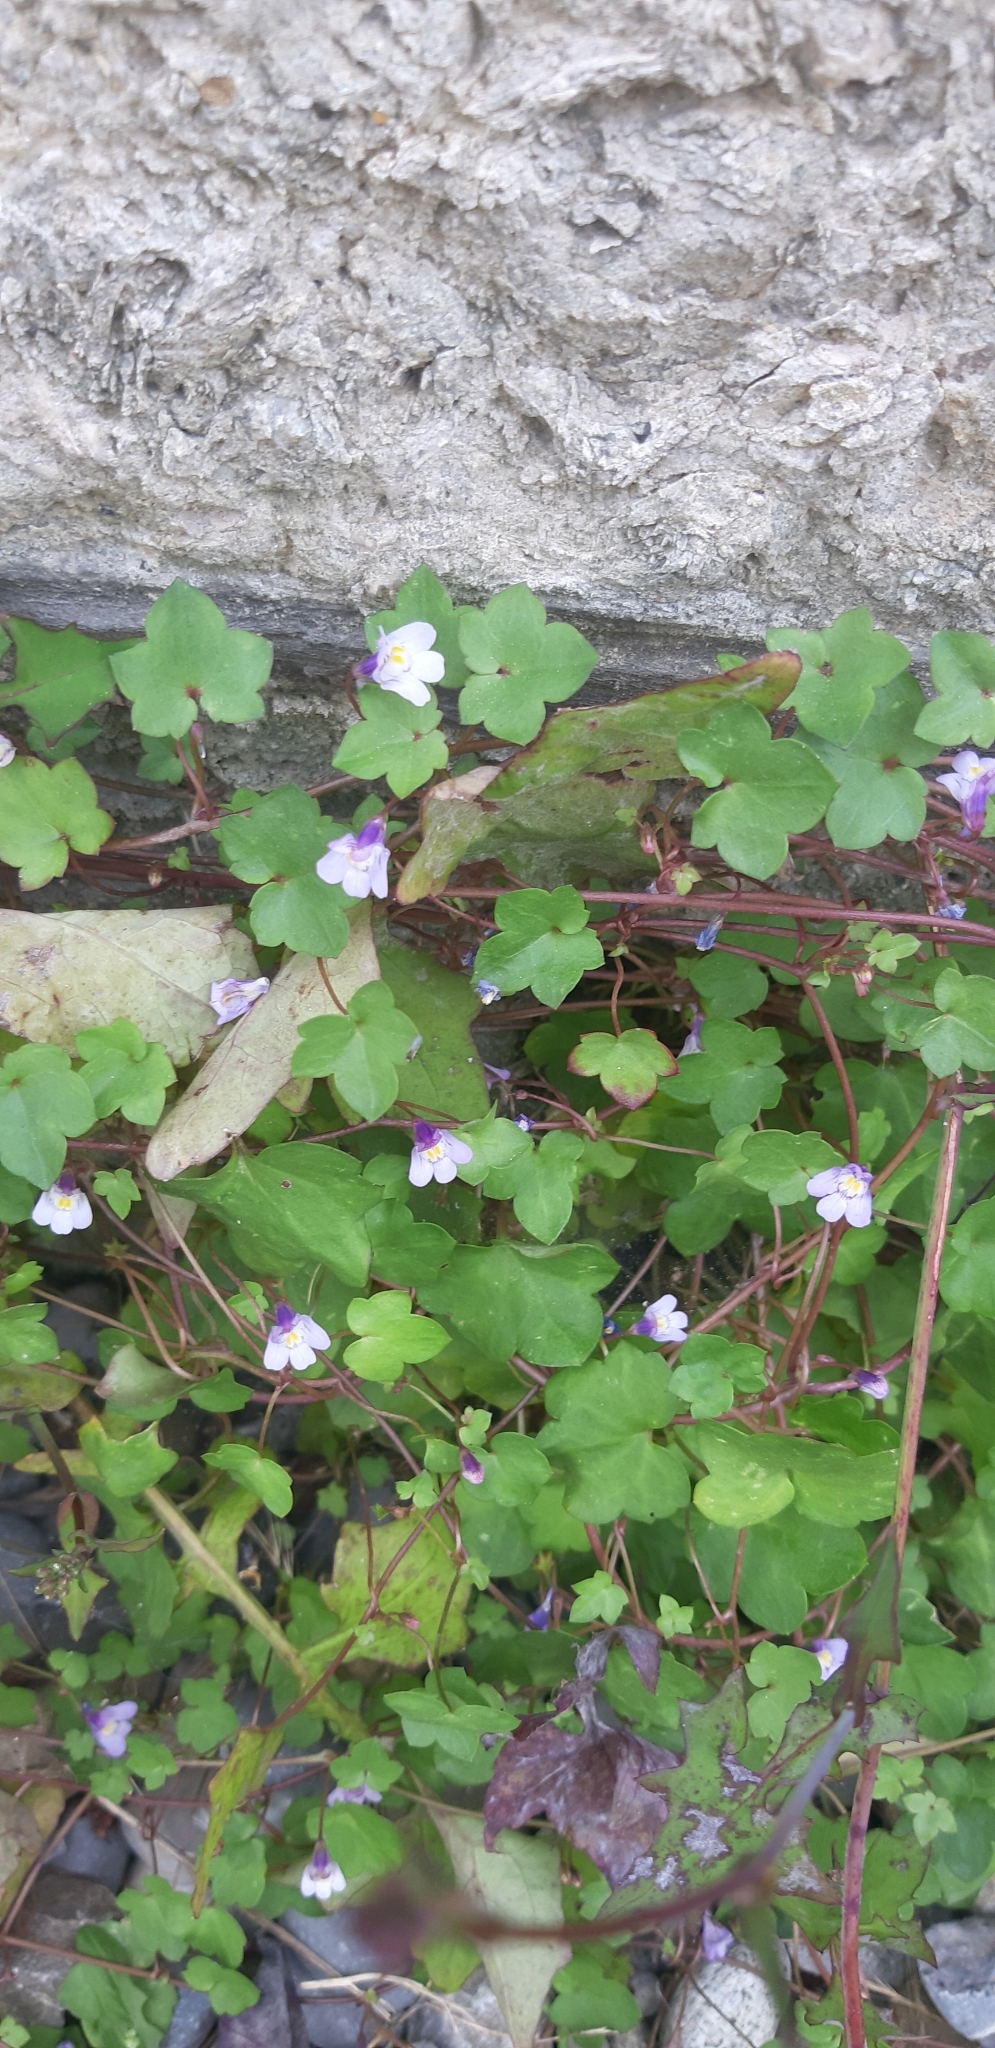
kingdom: Plantae
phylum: Tracheophyta
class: Magnoliopsida
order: Lamiales
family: Plantaginaceae
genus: Cymbalaria
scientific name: Cymbalaria muralis
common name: Ivy-leaved toadflax
